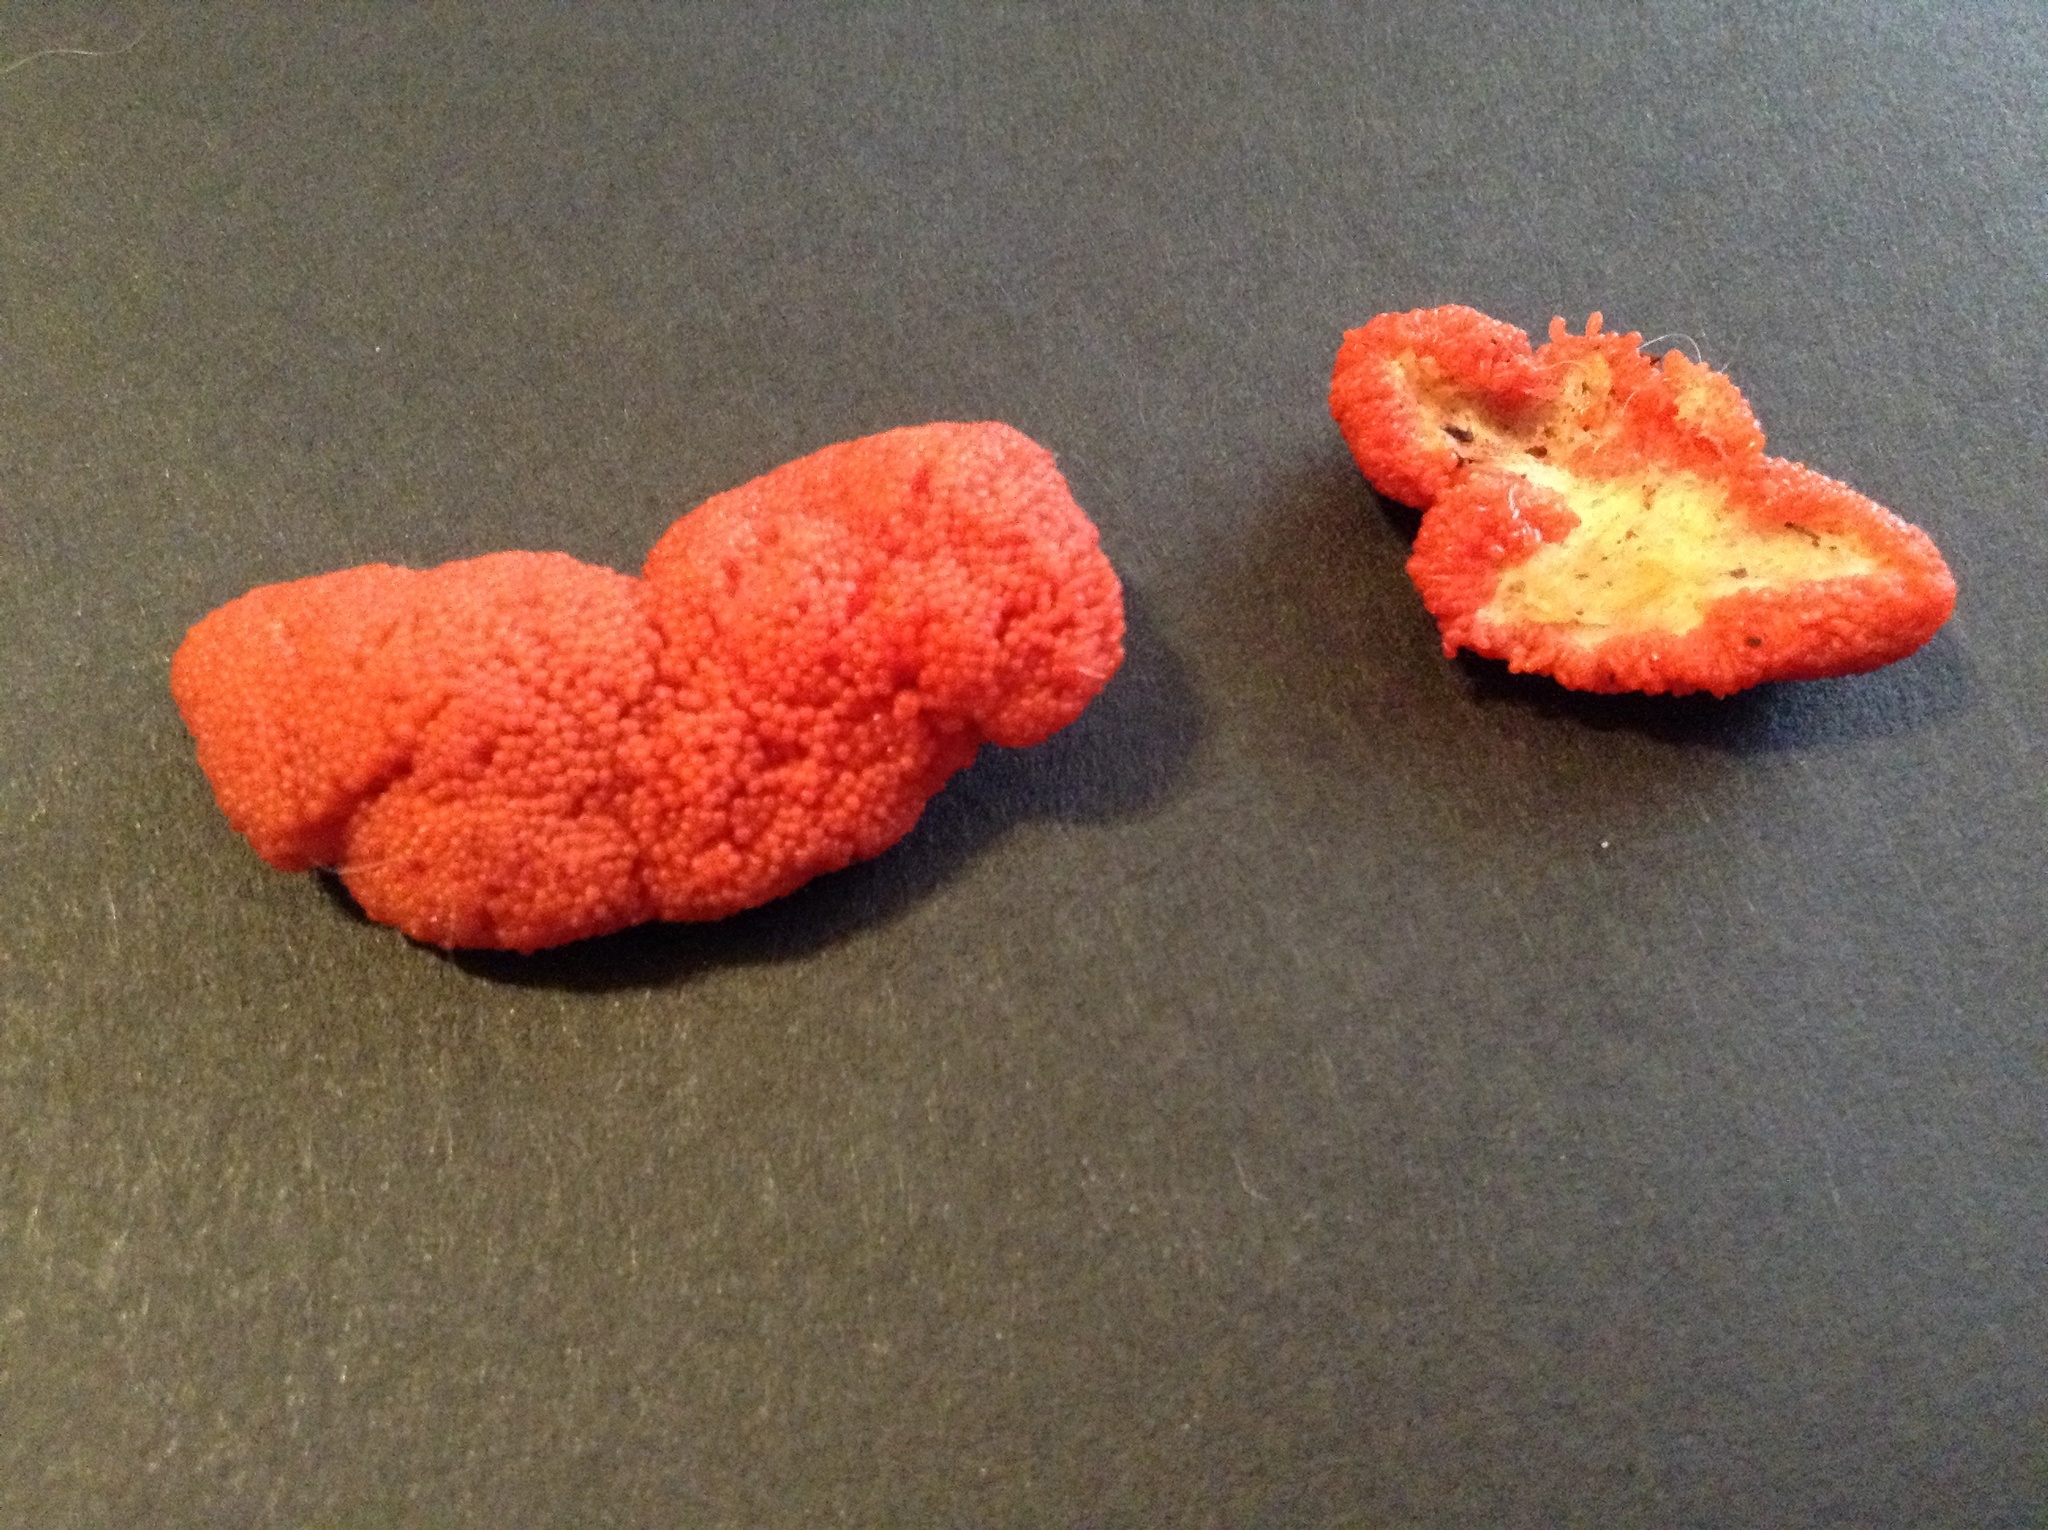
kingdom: Protozoa
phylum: Mycetozoa
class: Myxomycetes
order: Cribrariales
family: Tubiferaceae
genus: Tubifera
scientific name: Tubifera ferruginosa
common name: Red raspberry slime mold
